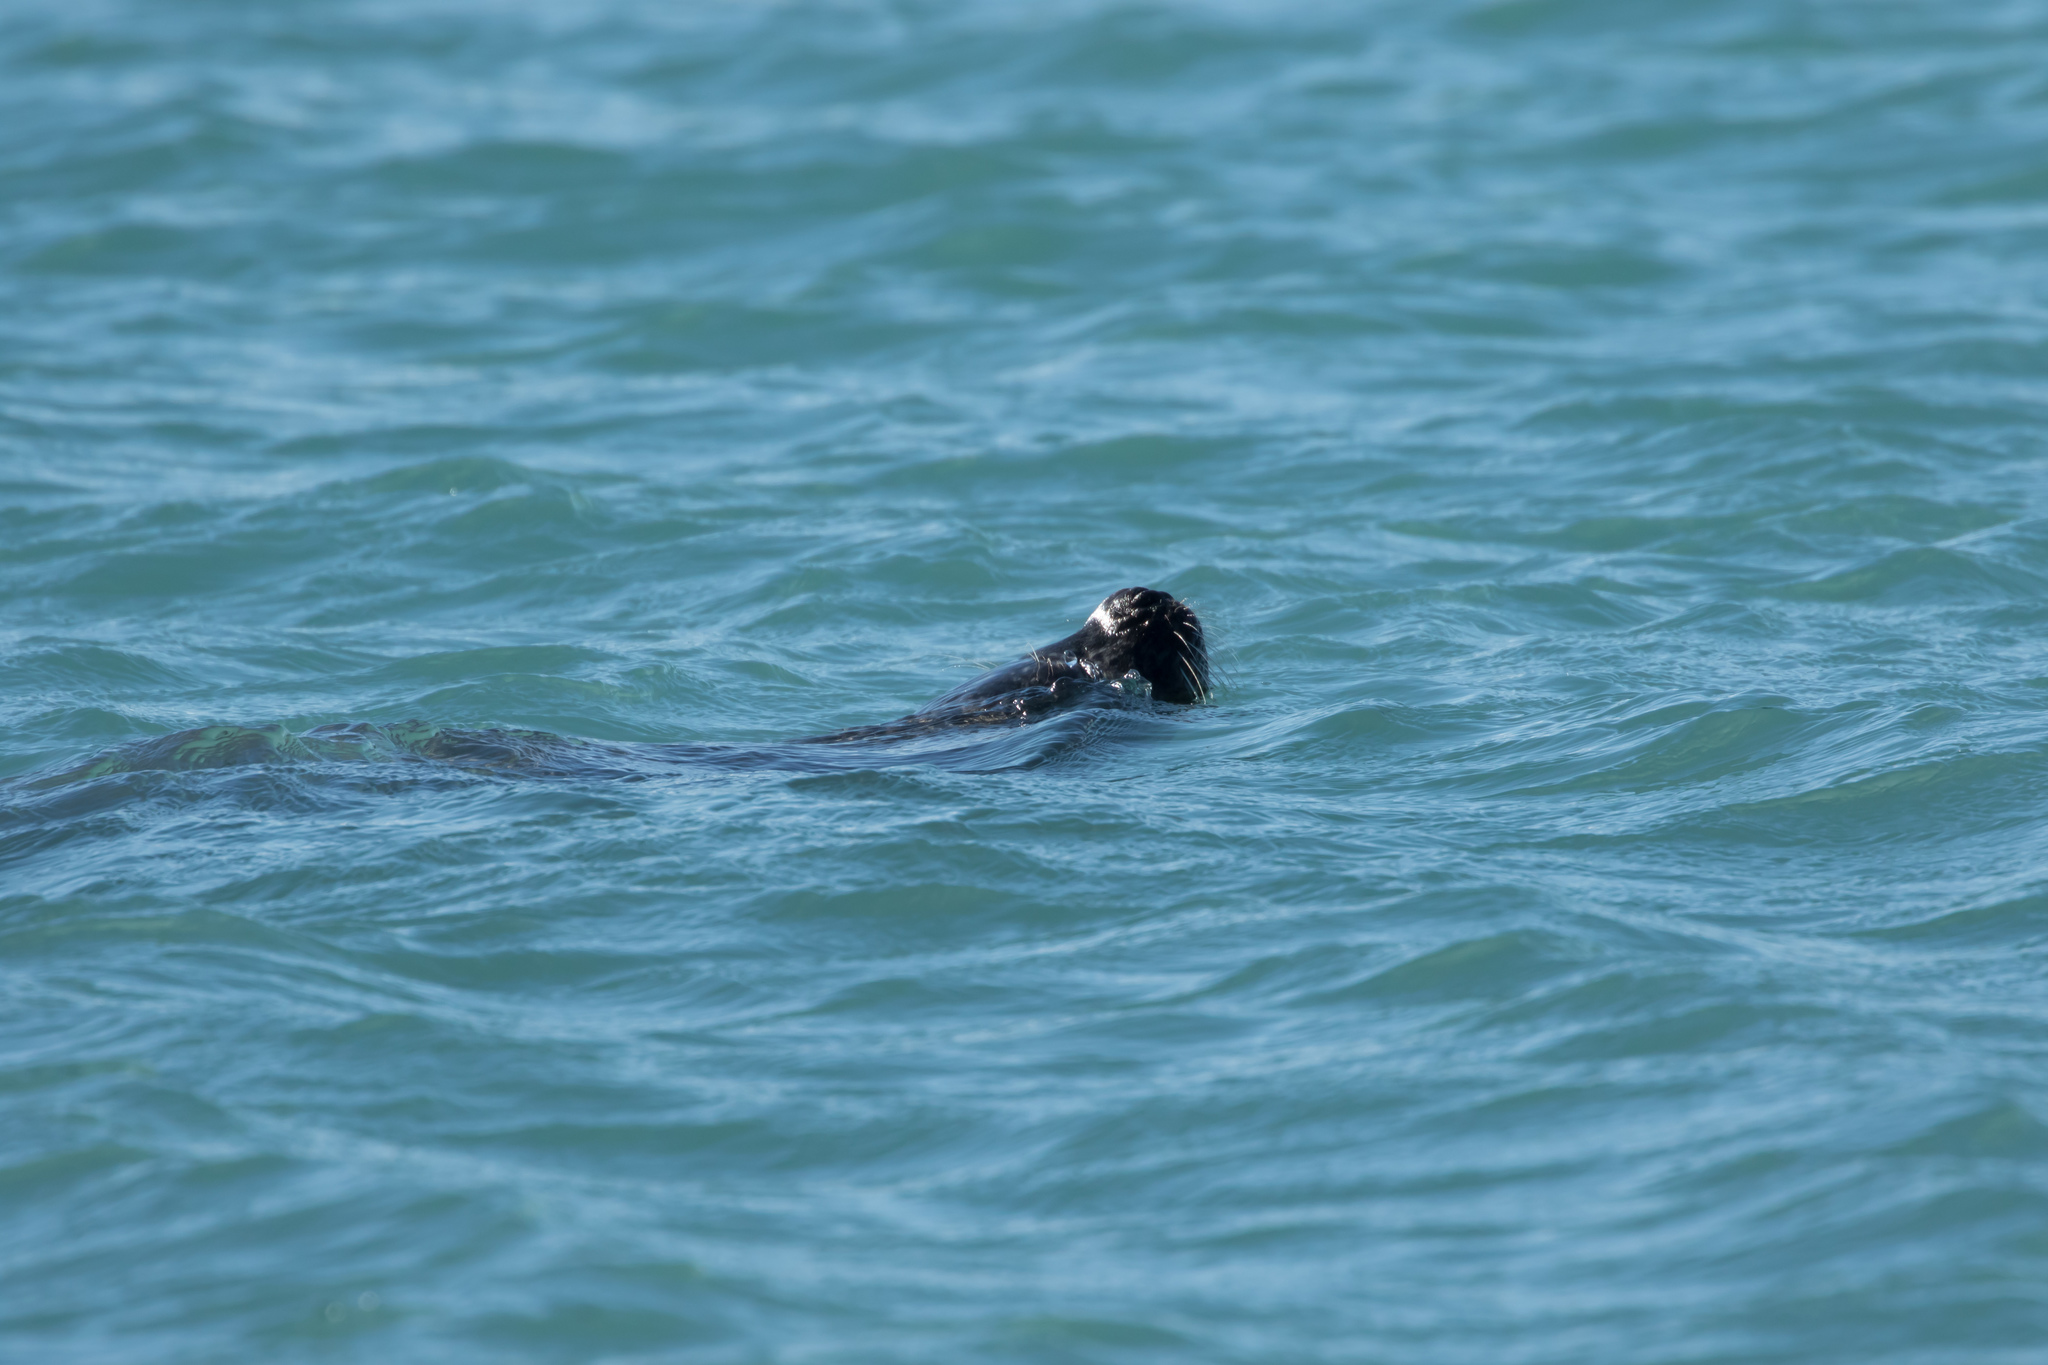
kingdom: Animalia
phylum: Chordata
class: Mammalia
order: Carnivora
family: Phocidae
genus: Phoca
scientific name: Phoca vitulina
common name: Harbor seal
